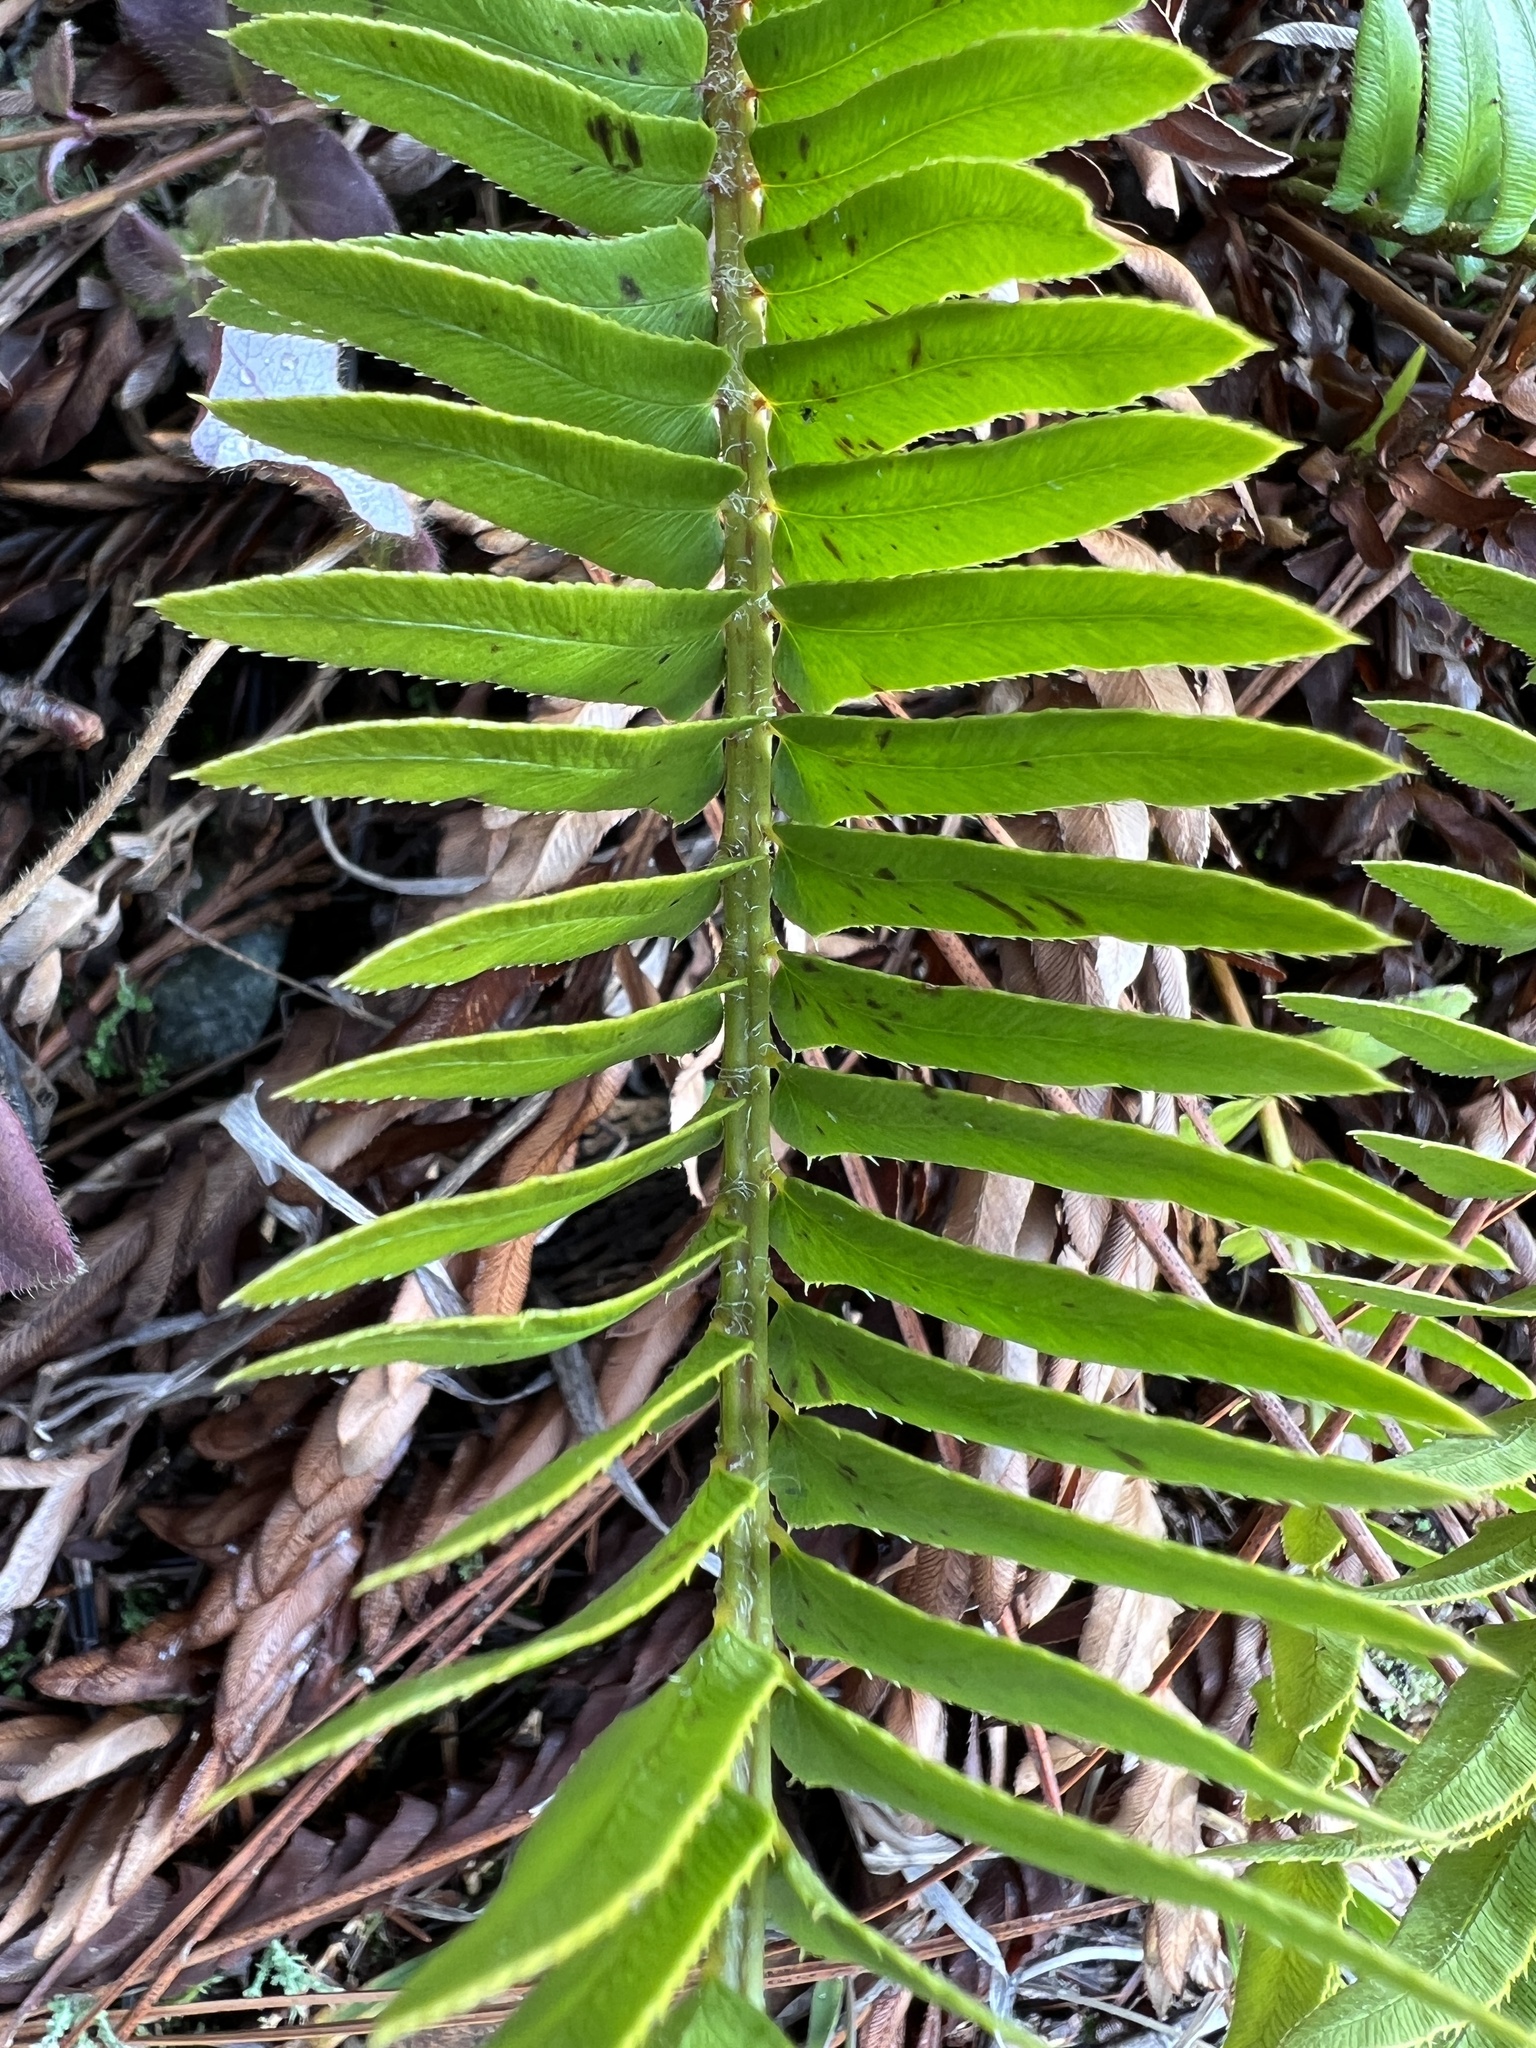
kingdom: Plantae
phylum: Tracheophyta
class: Polypodiopsida
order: Polypodiales
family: Dryopteridaceae
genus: Polystichum
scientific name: Polystichum imbricans
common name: Dwarf western sword fern
